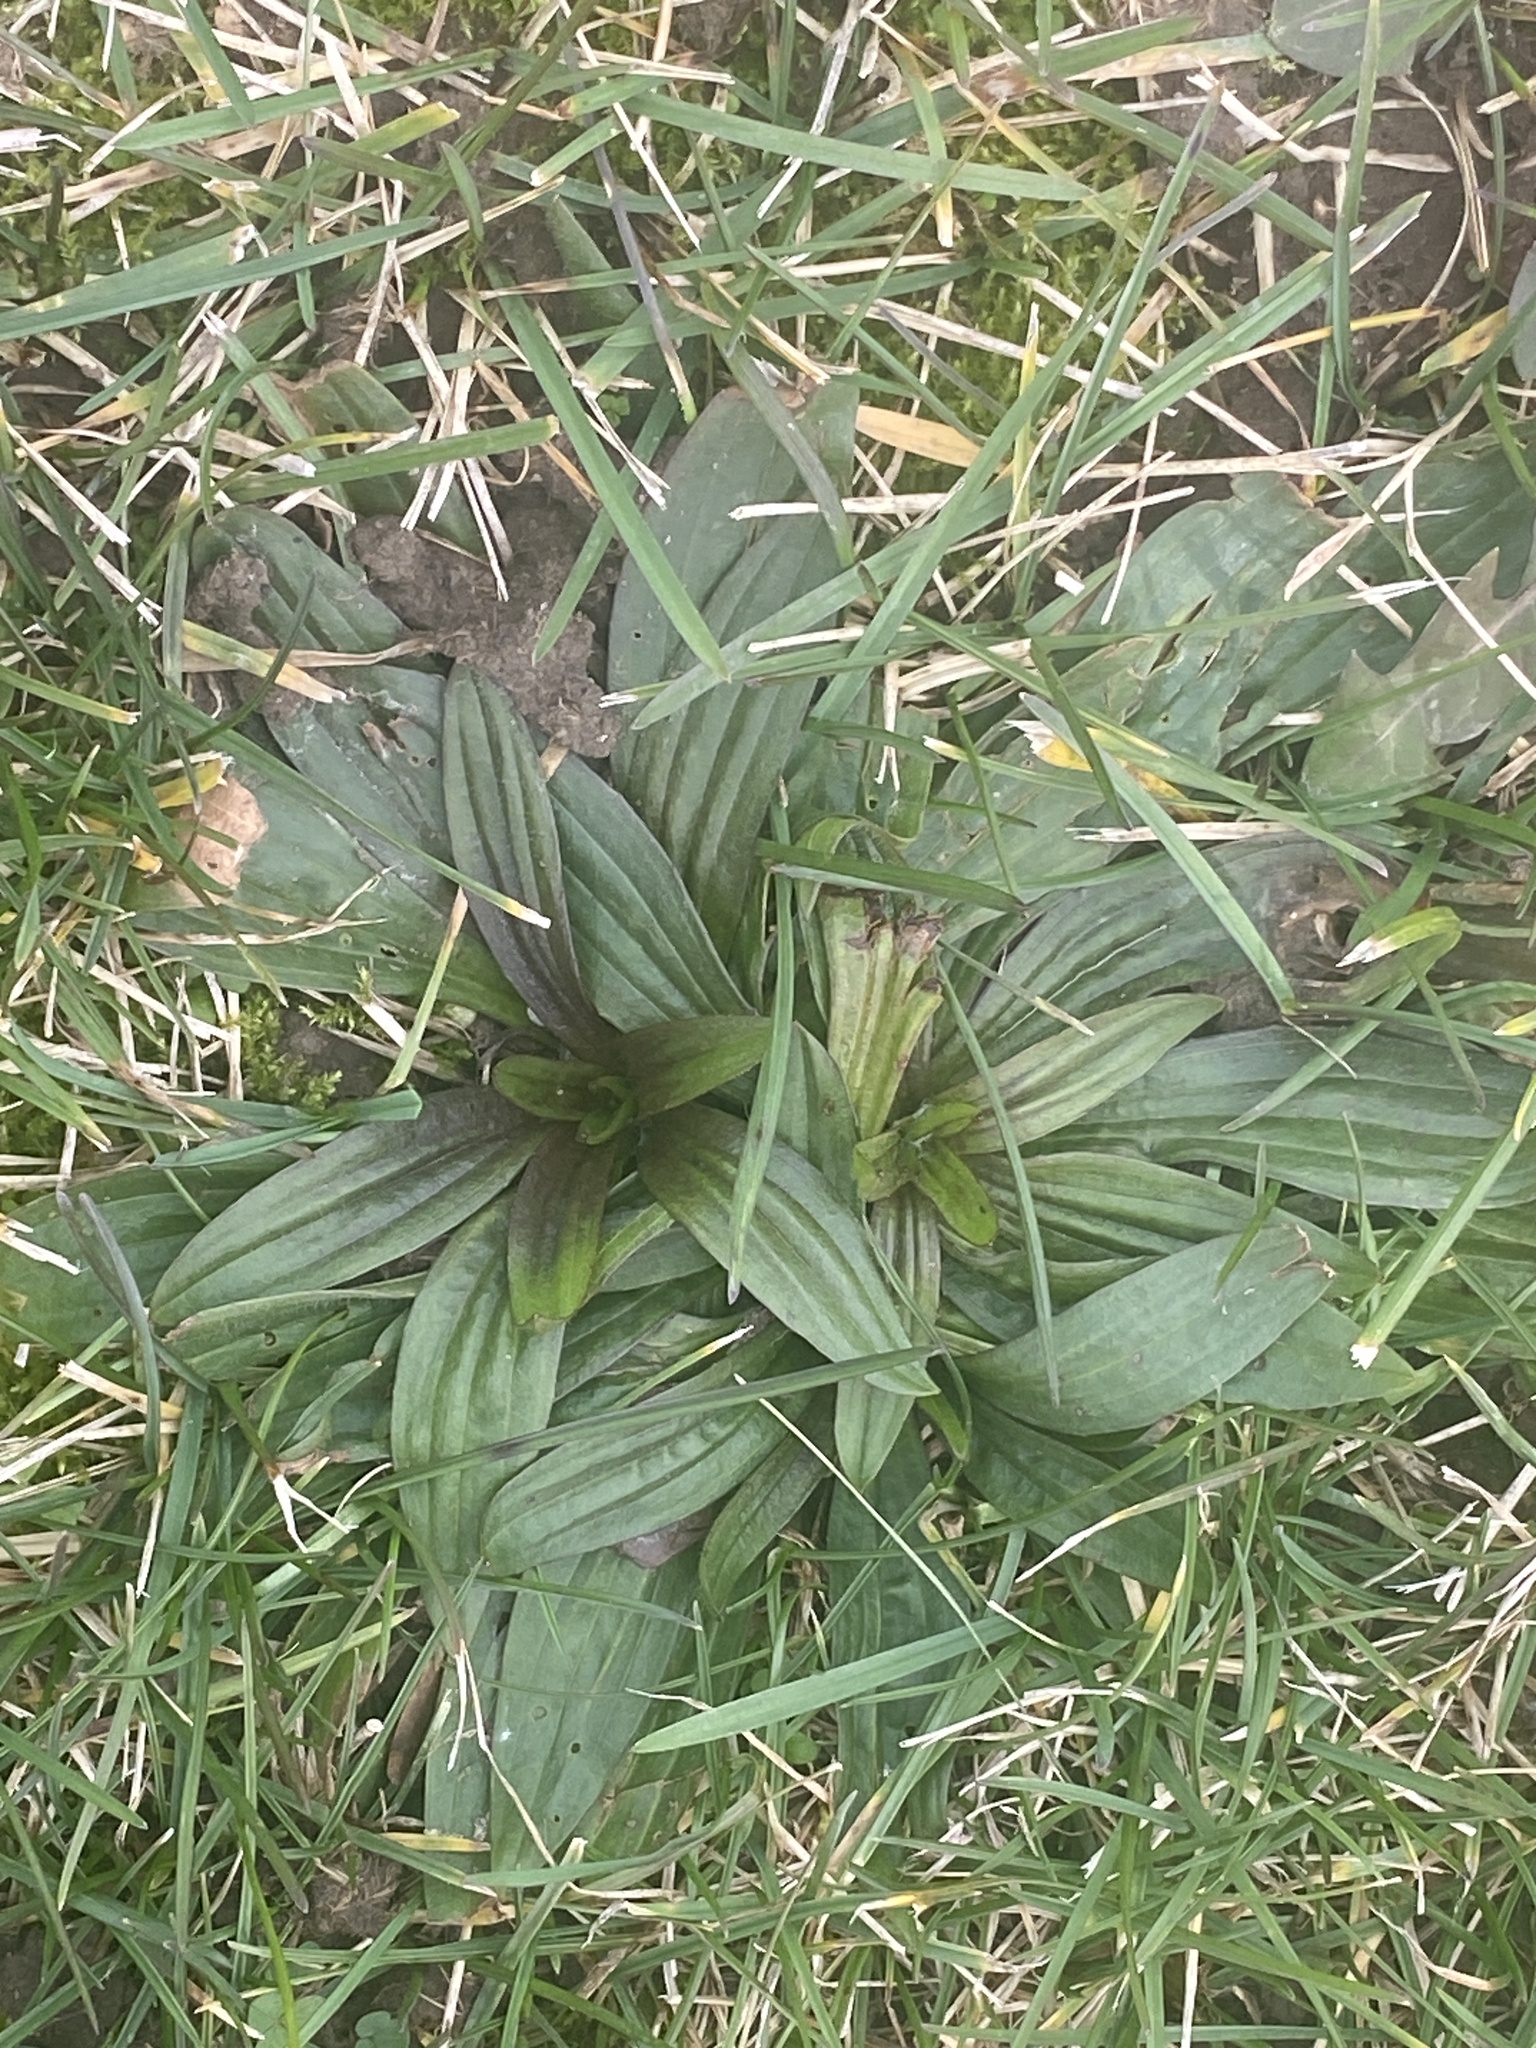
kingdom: Plantae
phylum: Tracheophyta
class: Magnoliopsida
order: Lamiales
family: Plantaginaceae
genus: Plantago
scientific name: Plantago lanceolata
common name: Ribwort plantain
